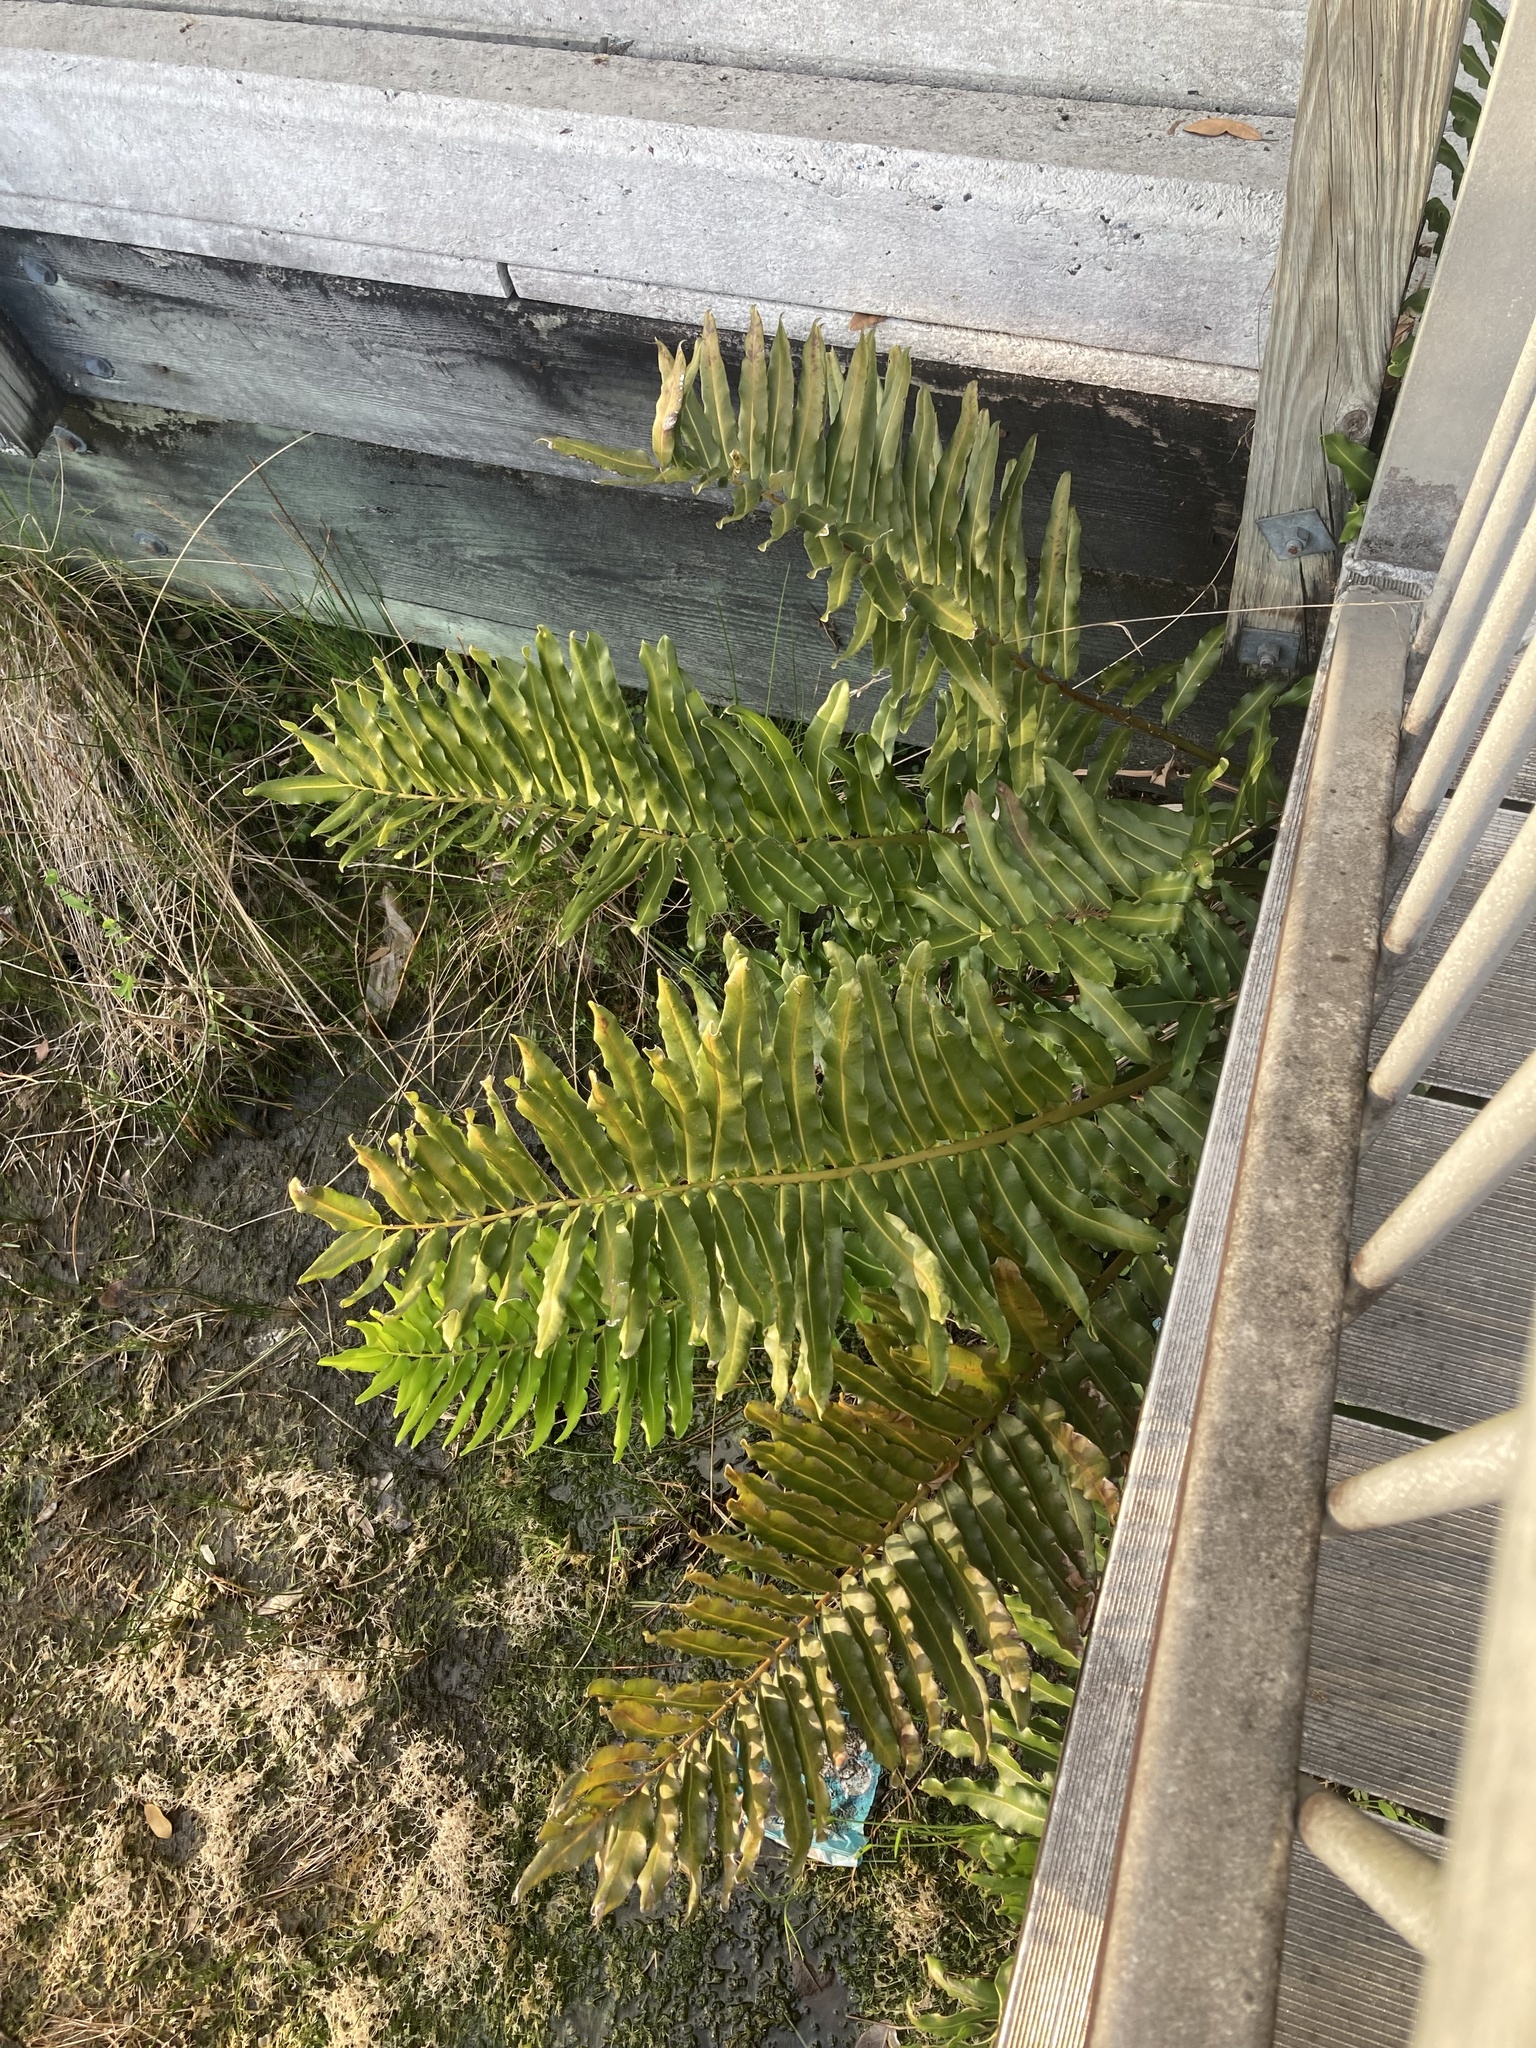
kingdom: Plantae
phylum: Tracheophyta
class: Polypodiopsida
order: Polypodiales
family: Pteridaceae
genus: Acrostichum
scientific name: Acrostichum danaeifolium
